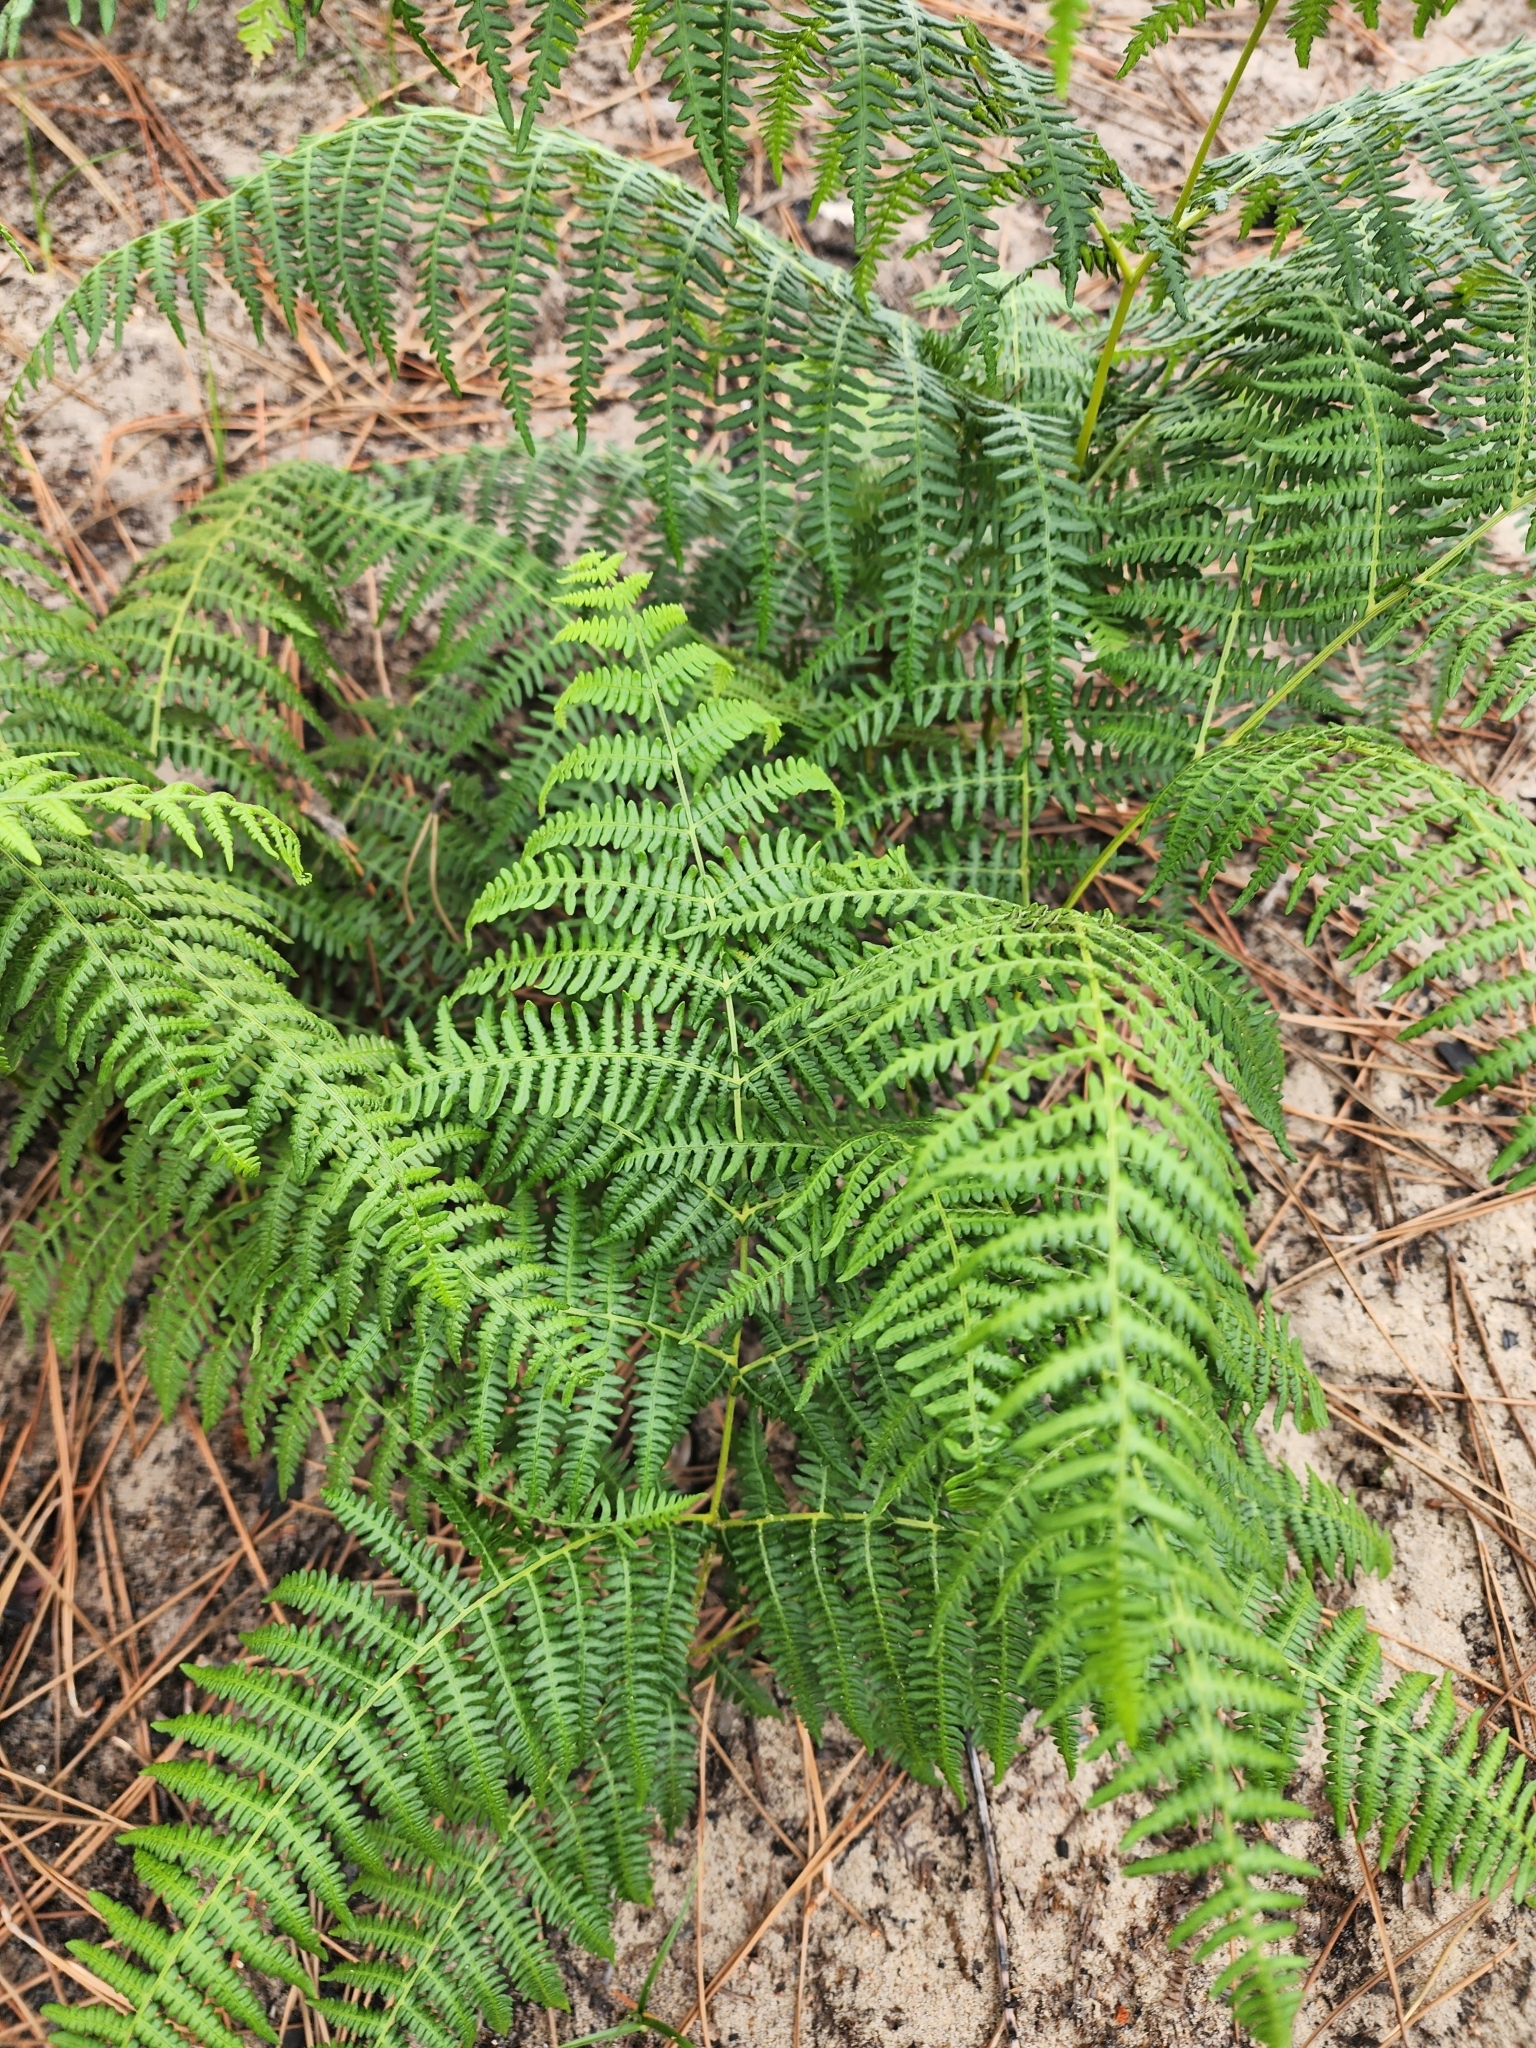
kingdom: Plantae
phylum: Tracheophyta
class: Polypodiopsida
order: Polypodiales
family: Dennstaedtiaceae
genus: Pteridium
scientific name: Pteridium aquilinum
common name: Bracken
